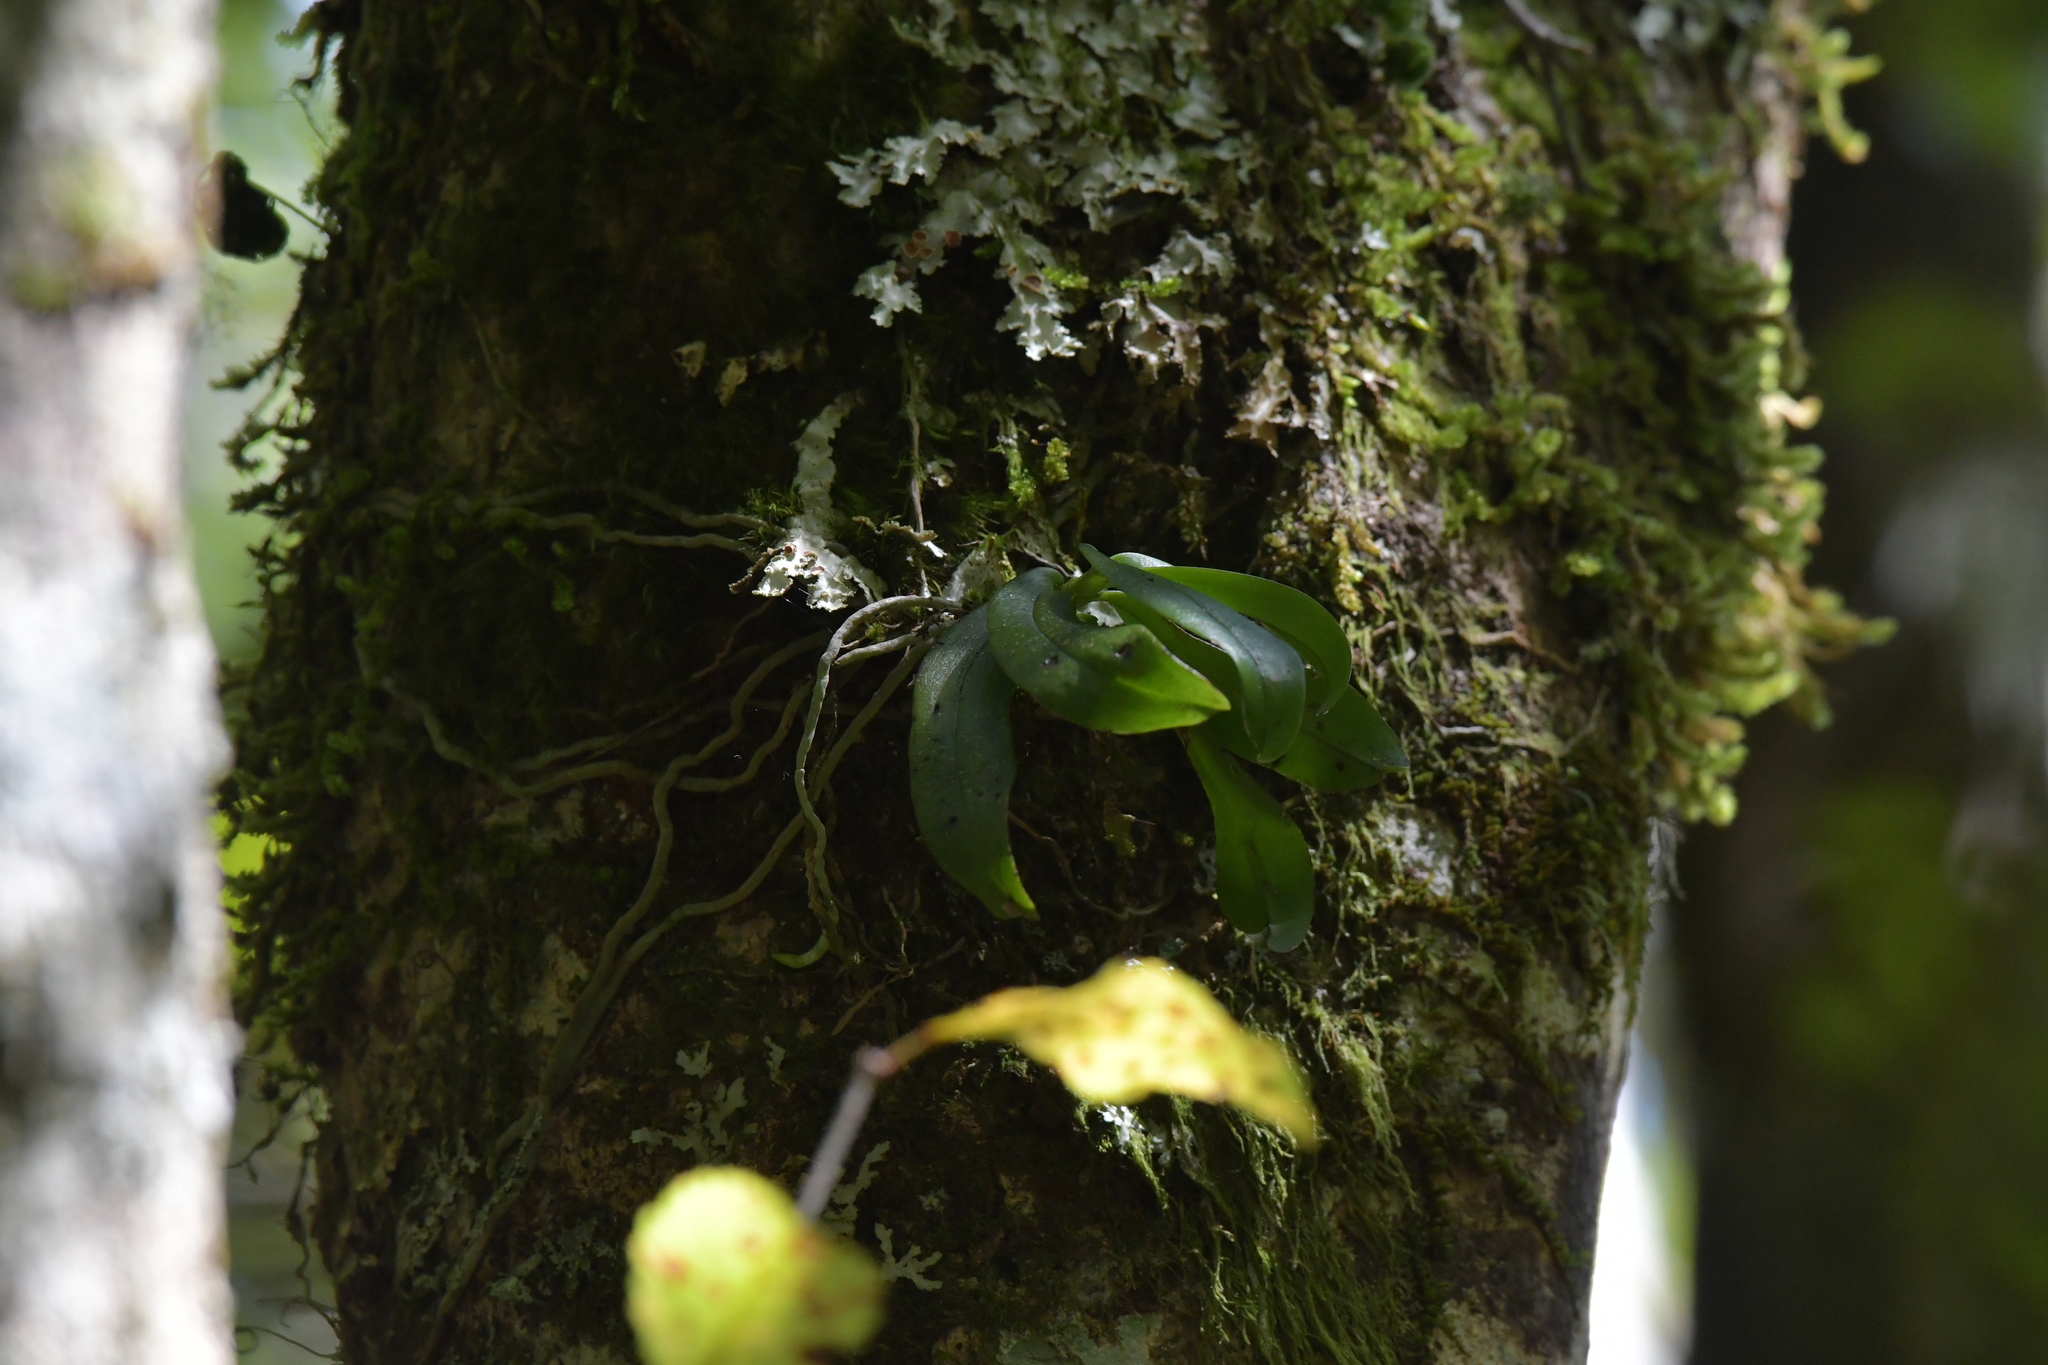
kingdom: Plantae
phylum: Tracheophyta
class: Liliopsida
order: Asparagales
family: Orchidaceae
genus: Drymoanthus
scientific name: Drymoanthus adversus
